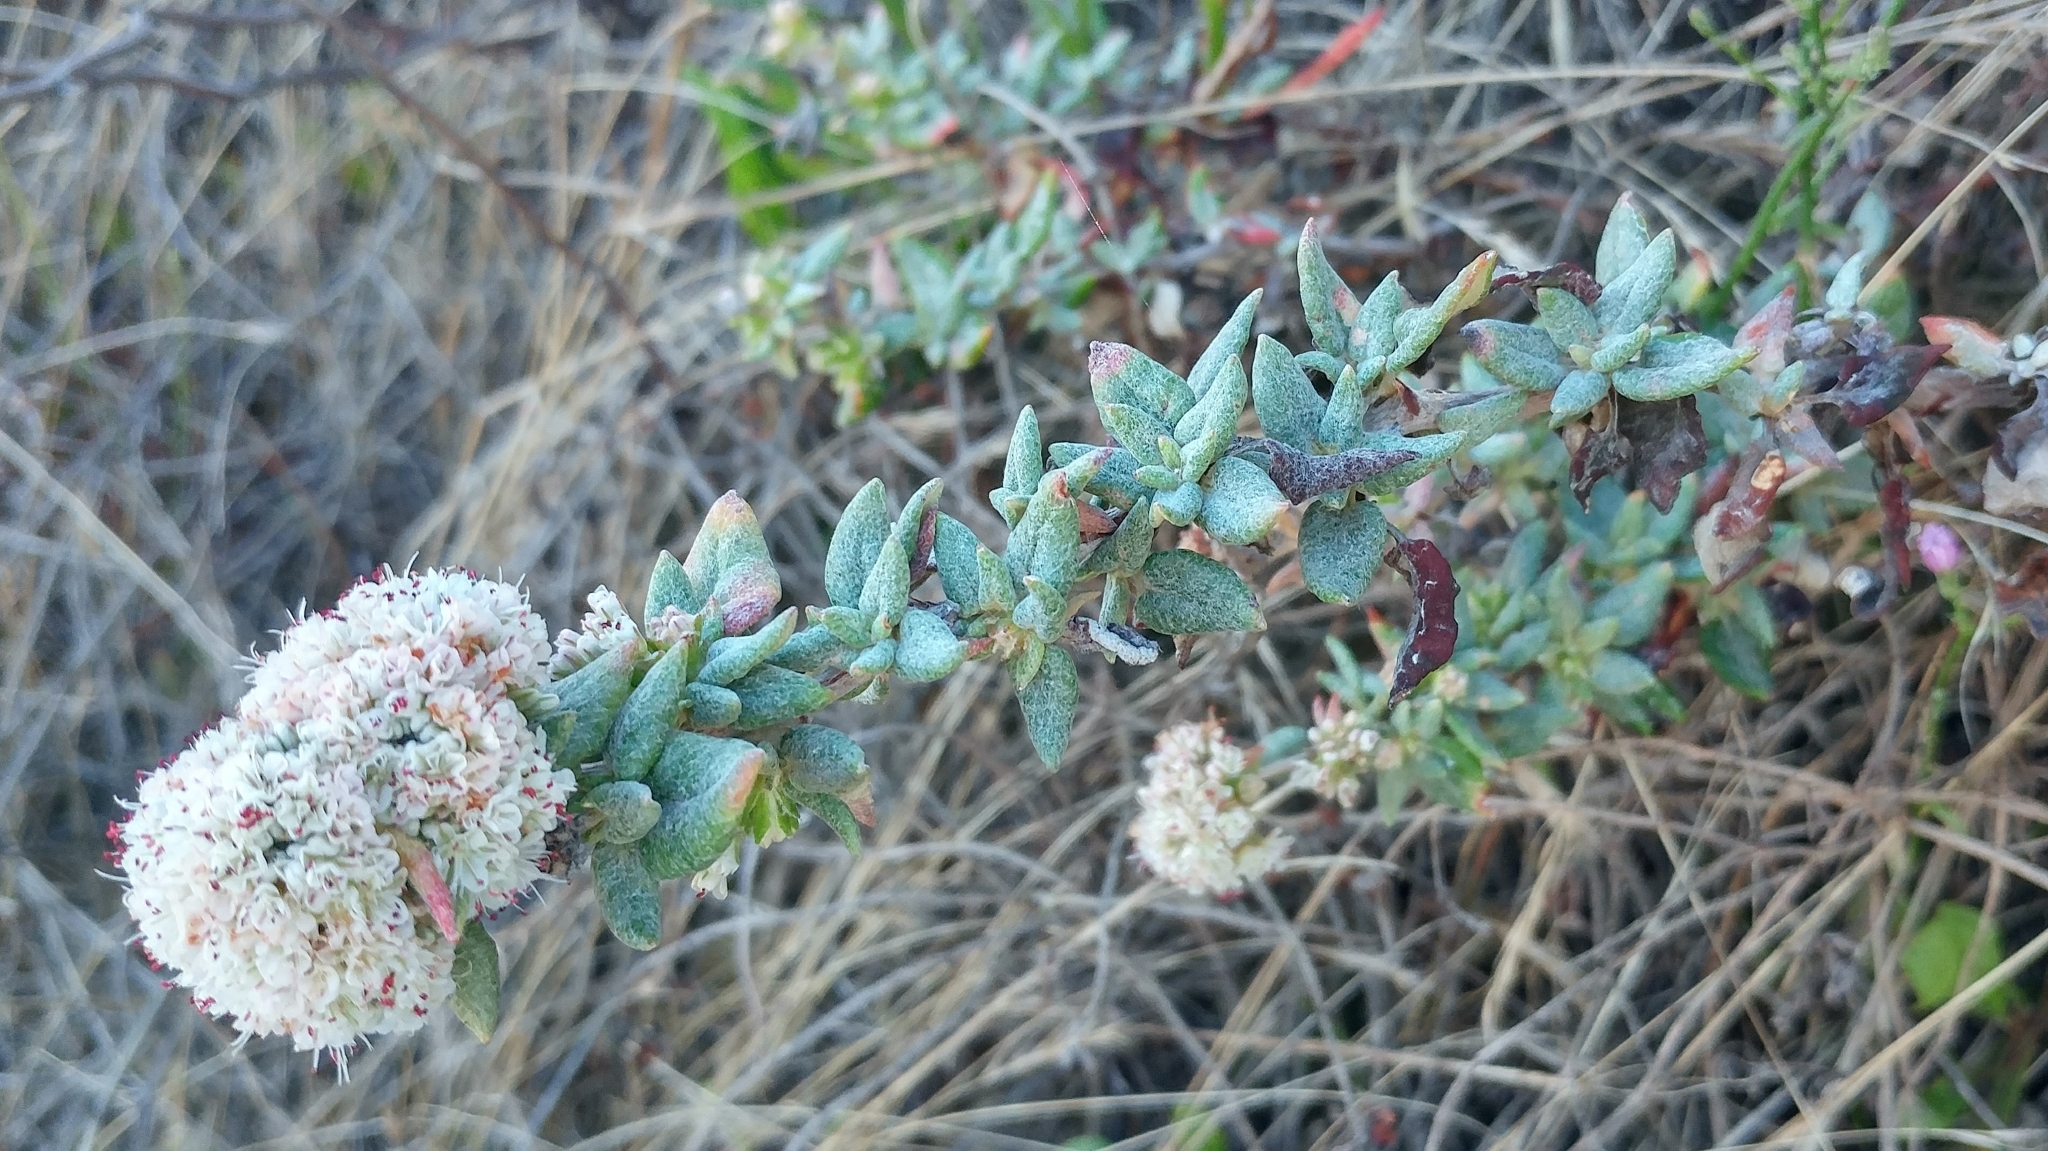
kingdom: Plantae
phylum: Tracheophyta
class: Magnoliopsida
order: Caryophyllales
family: Polygonaceae
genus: Eriogonum
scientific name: Eriogonum parvifolium
